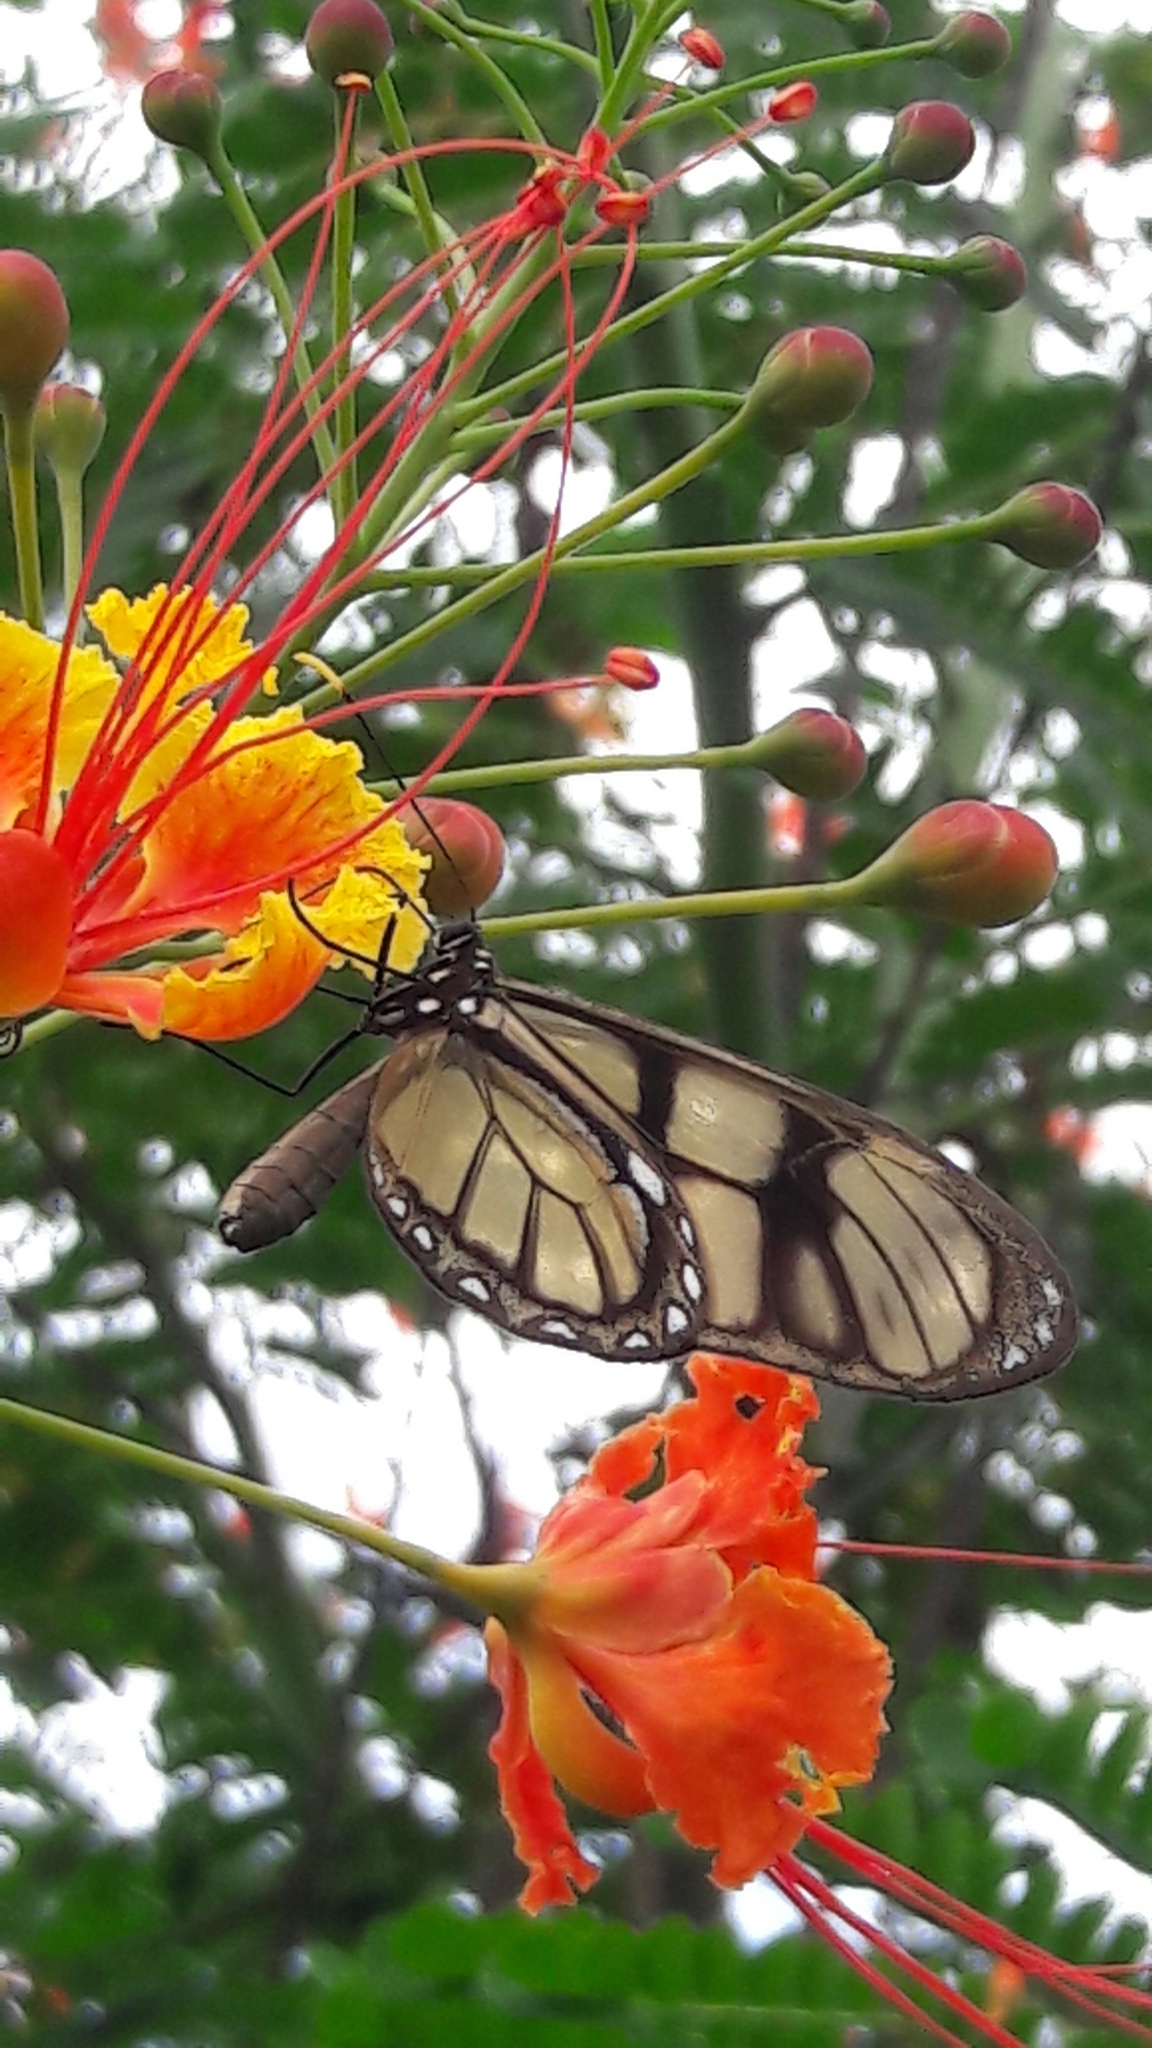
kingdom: Animalia
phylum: Arthropoda
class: Insecta
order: Lepidoptera
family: Nymphalidae
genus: Dircenna
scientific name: Dircenna dero
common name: Dero clearwing
